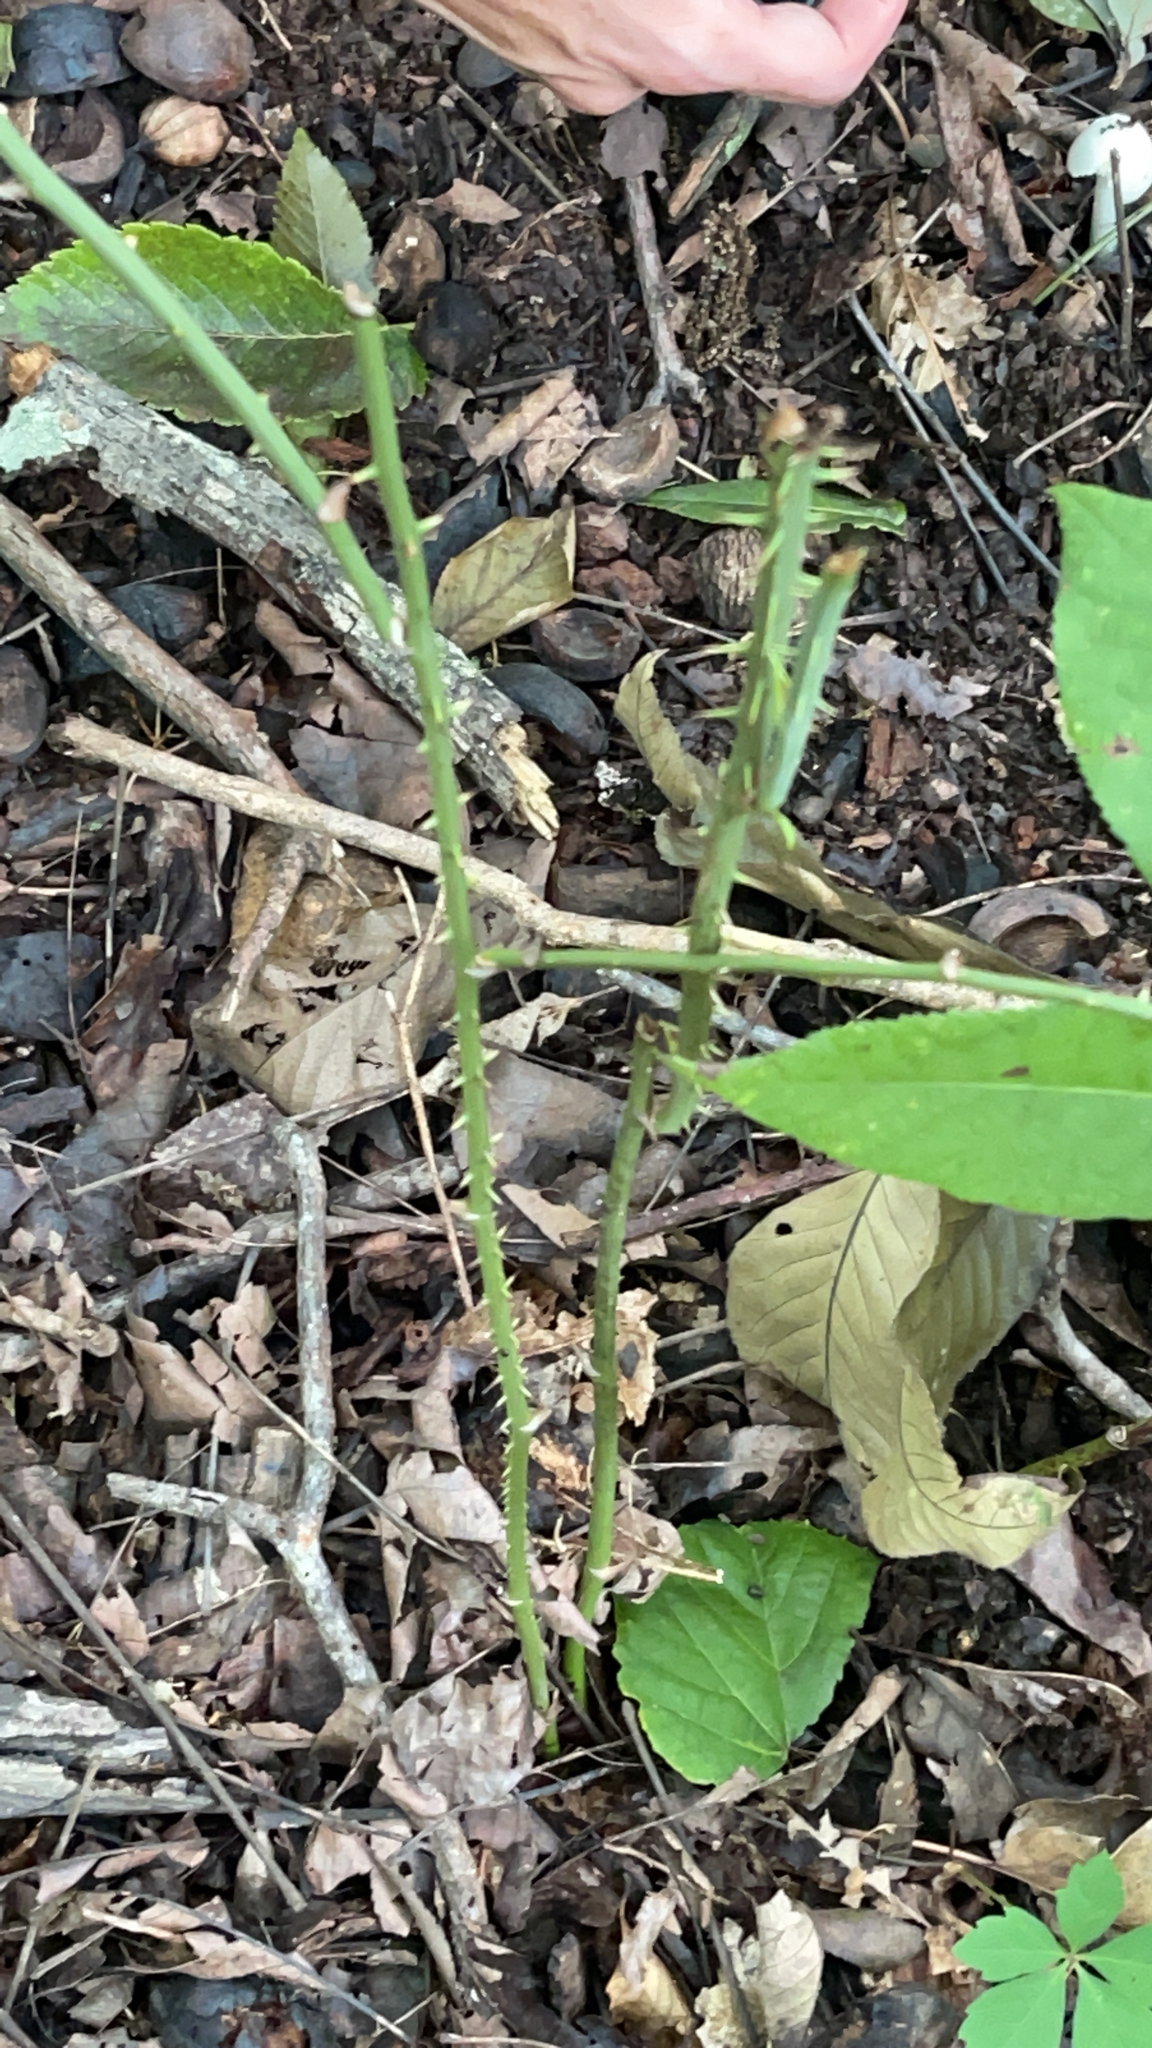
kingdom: Plantae
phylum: Tracheophyta
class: Liliopsida
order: Liliales
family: Smilacaceae
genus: Smilax
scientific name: Smilax tamnoides
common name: Hellfetter
